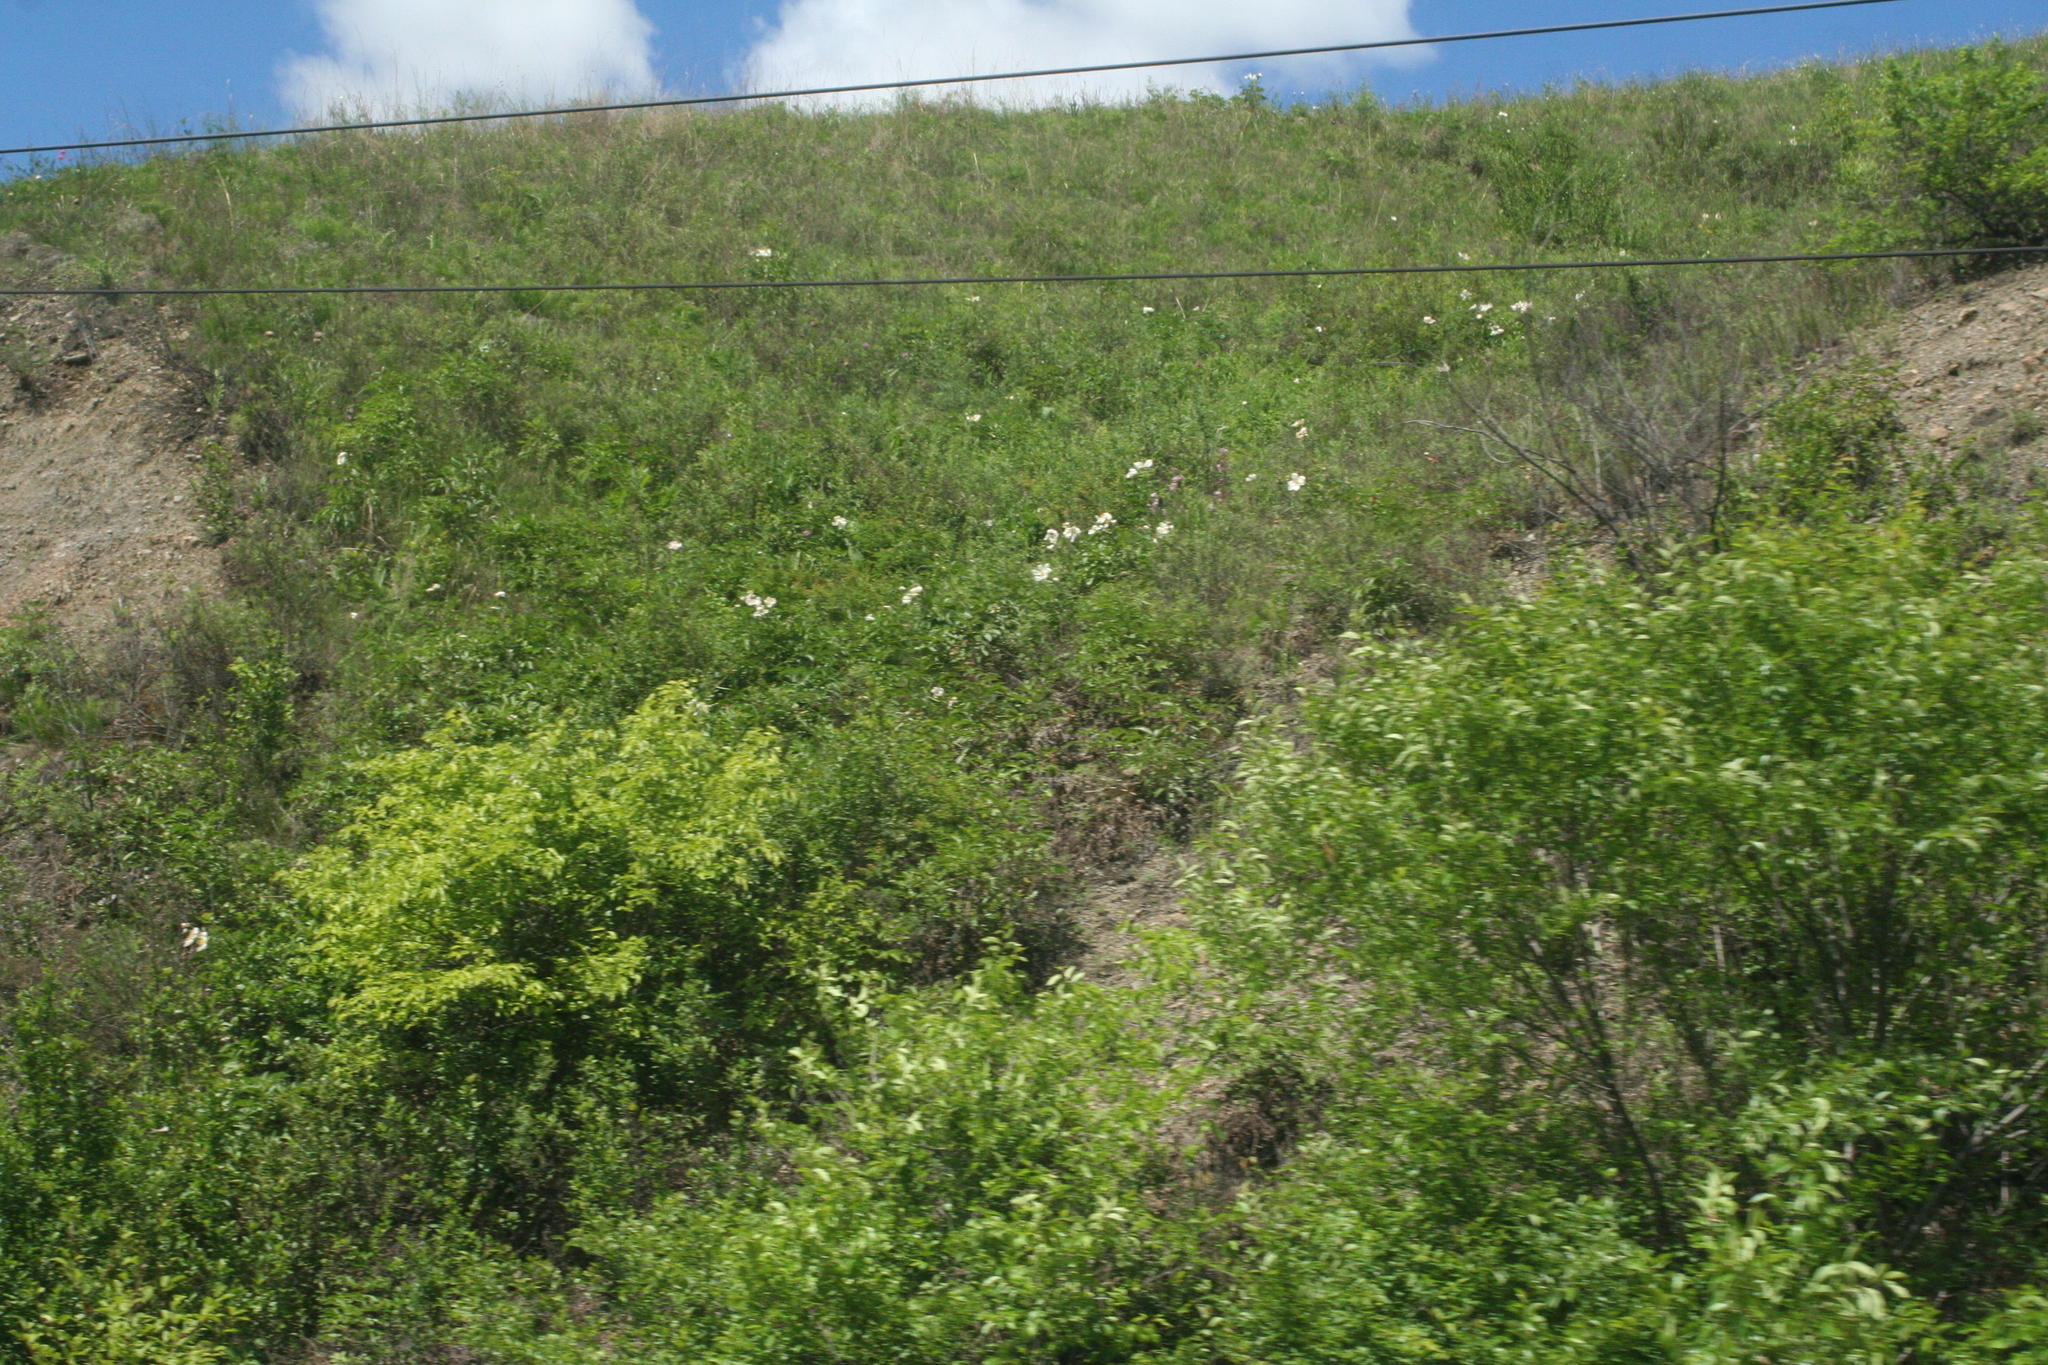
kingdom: Plantae
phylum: Tracheophyta
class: Magnoliopsida
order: Saxifragales
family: Paeoniaceae
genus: Paeonia
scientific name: Paeonia lactiflora
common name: Chinese peony
